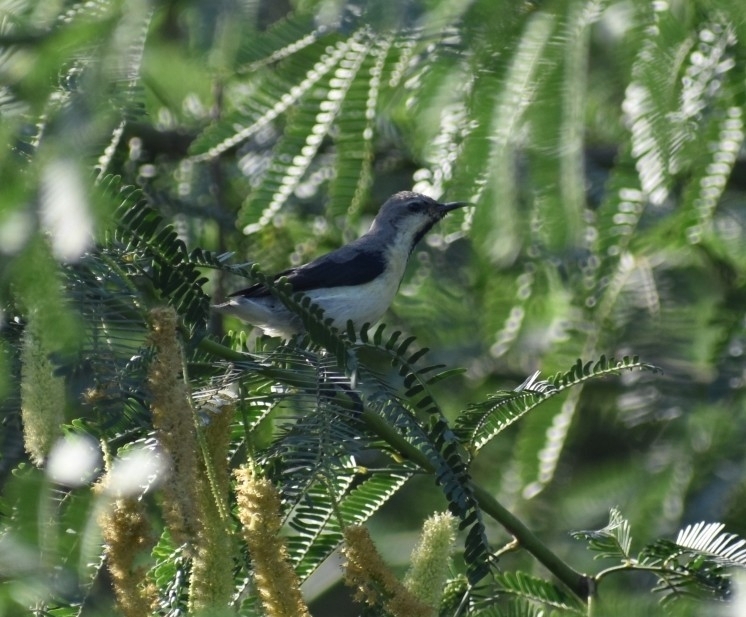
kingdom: Animalia
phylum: Chordata
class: Aves
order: Passeriformes
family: Nectariniidae
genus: Cinnyris
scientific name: Cinnyris asiaticus
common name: Purple sunbird
